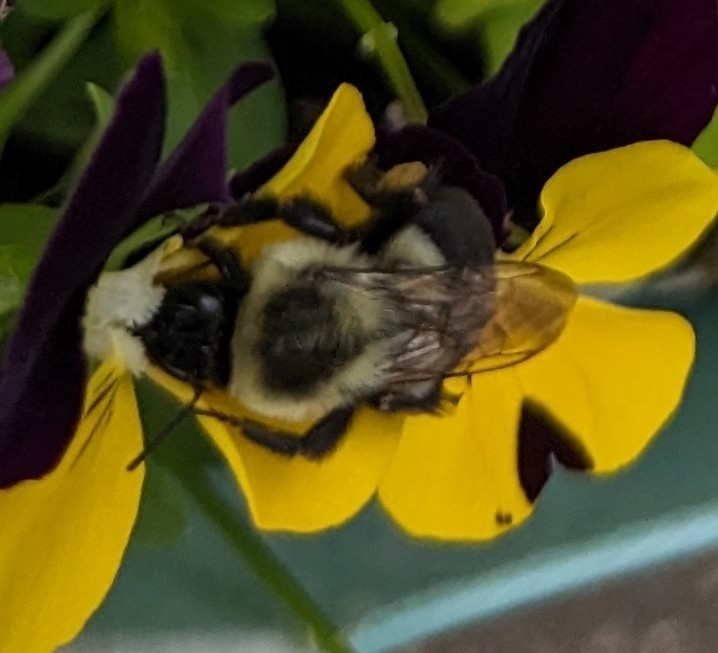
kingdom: Animalia
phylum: Arthropoda
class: Insecta
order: Hymenoptera
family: Apidae
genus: Bombus
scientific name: Bombus impatiens
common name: Common eastern bumble bee
